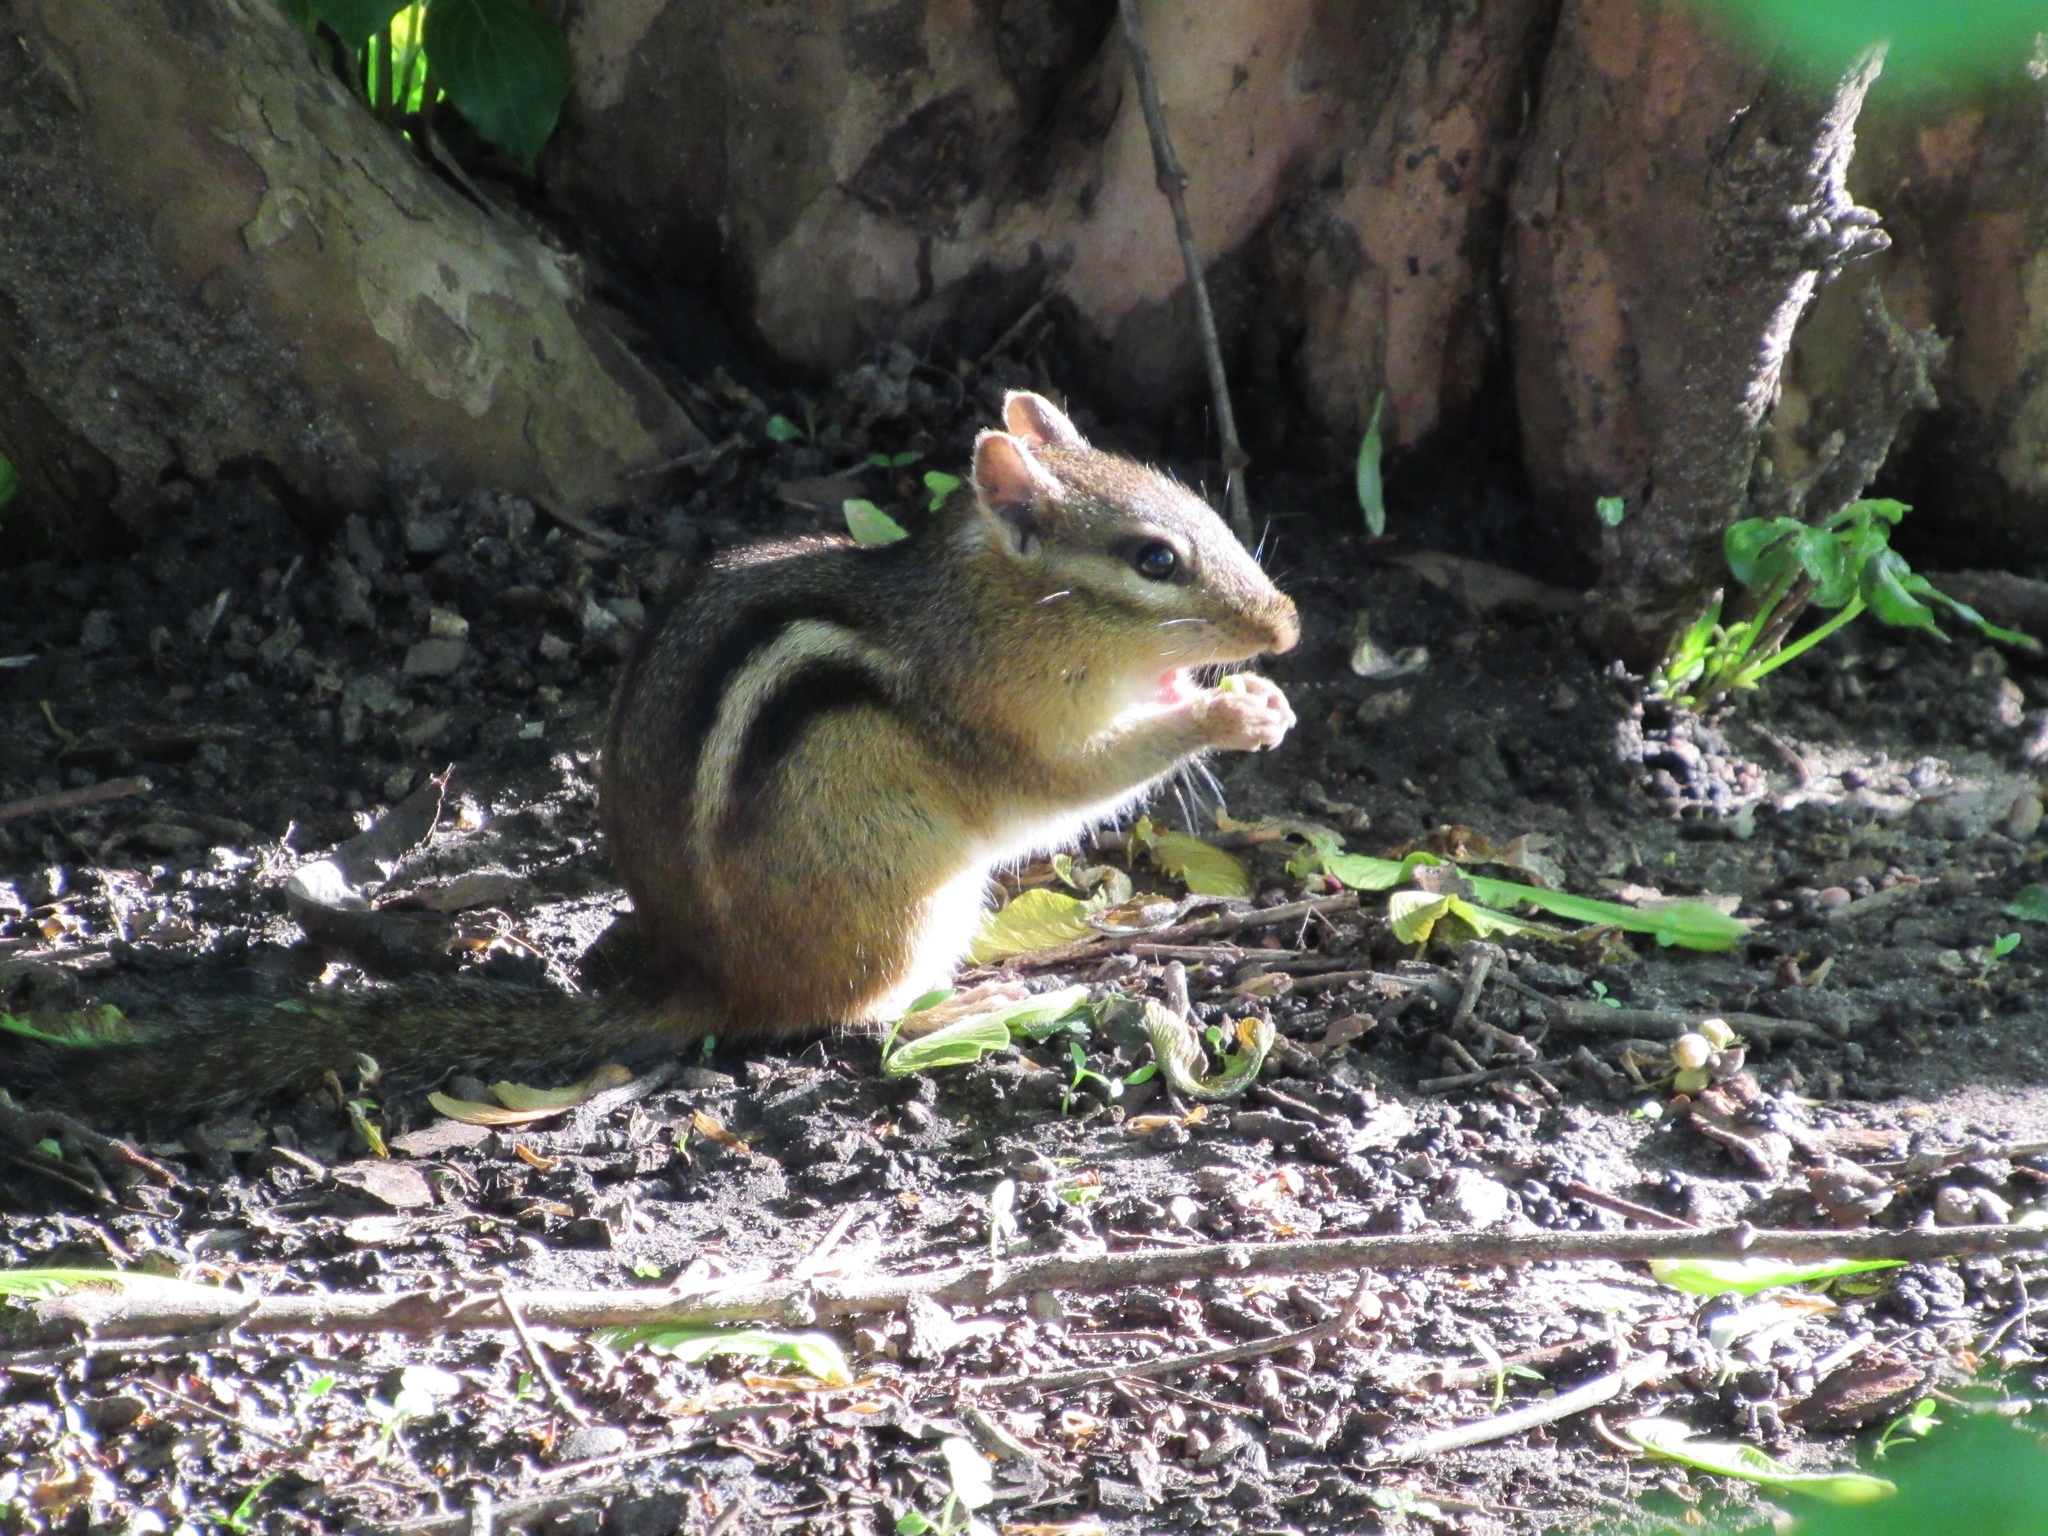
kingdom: Animalia
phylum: Chordata
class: Mammalia
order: Rodentia
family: Sciuridae
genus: Tamias
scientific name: Tamias striatus
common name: Eastern chipmunk
